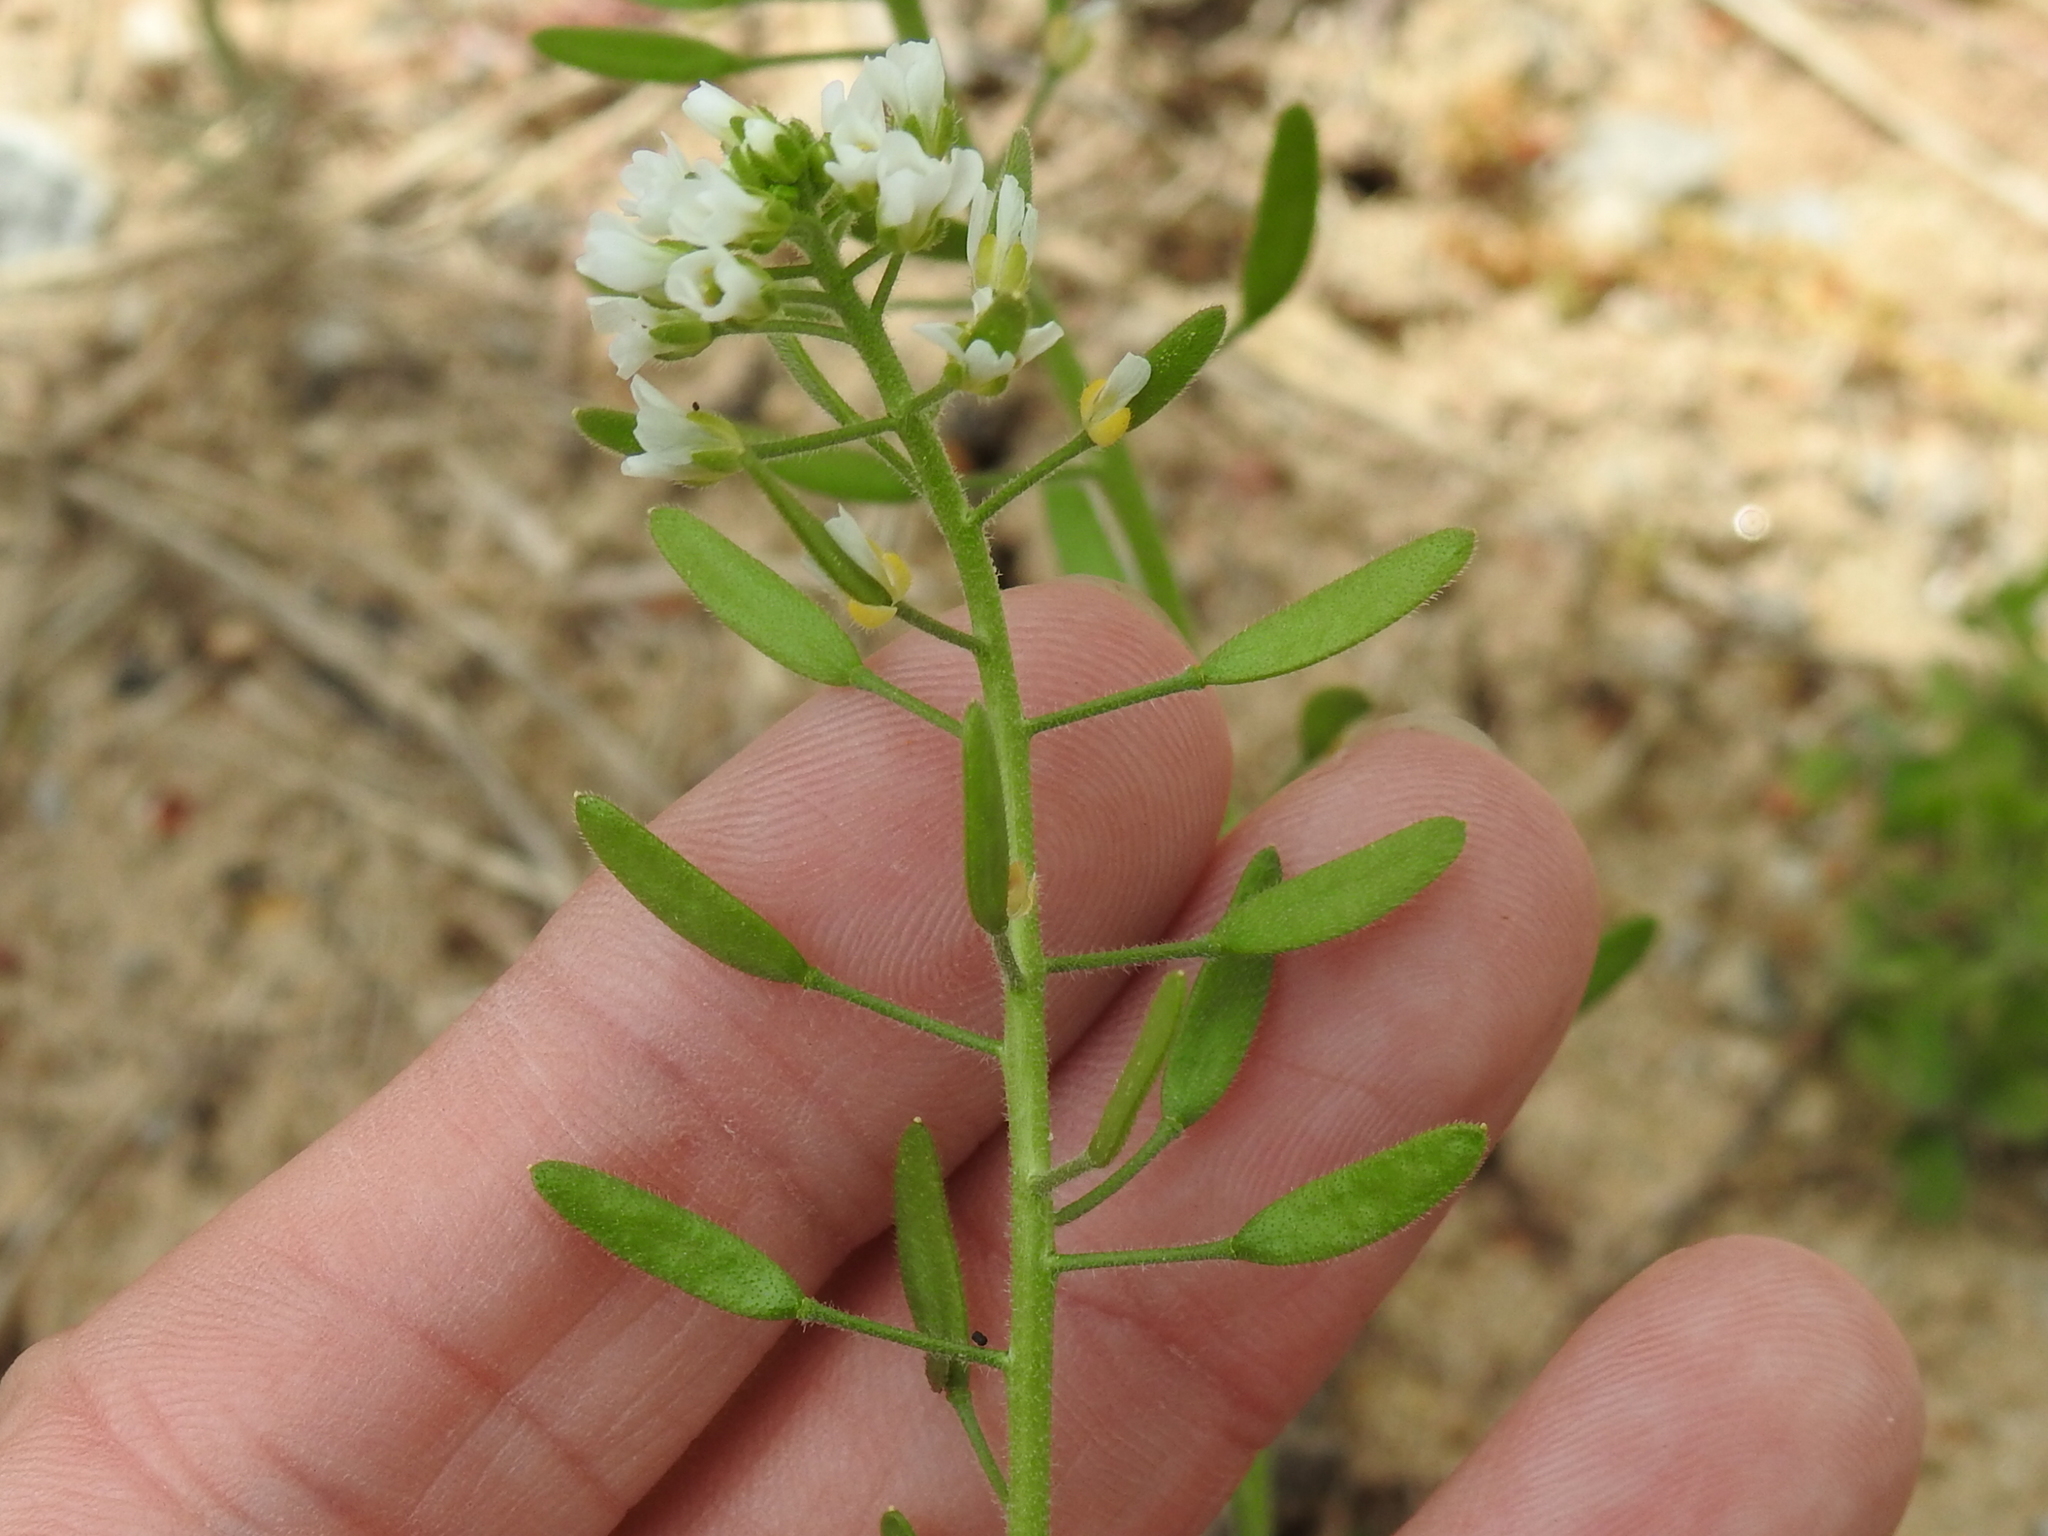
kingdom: Plantae
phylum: Tracheophyta
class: Magnoliopsida
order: Brassicales
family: Brassicaceae
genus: Tomostima
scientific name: Tomostima cuneifolia
